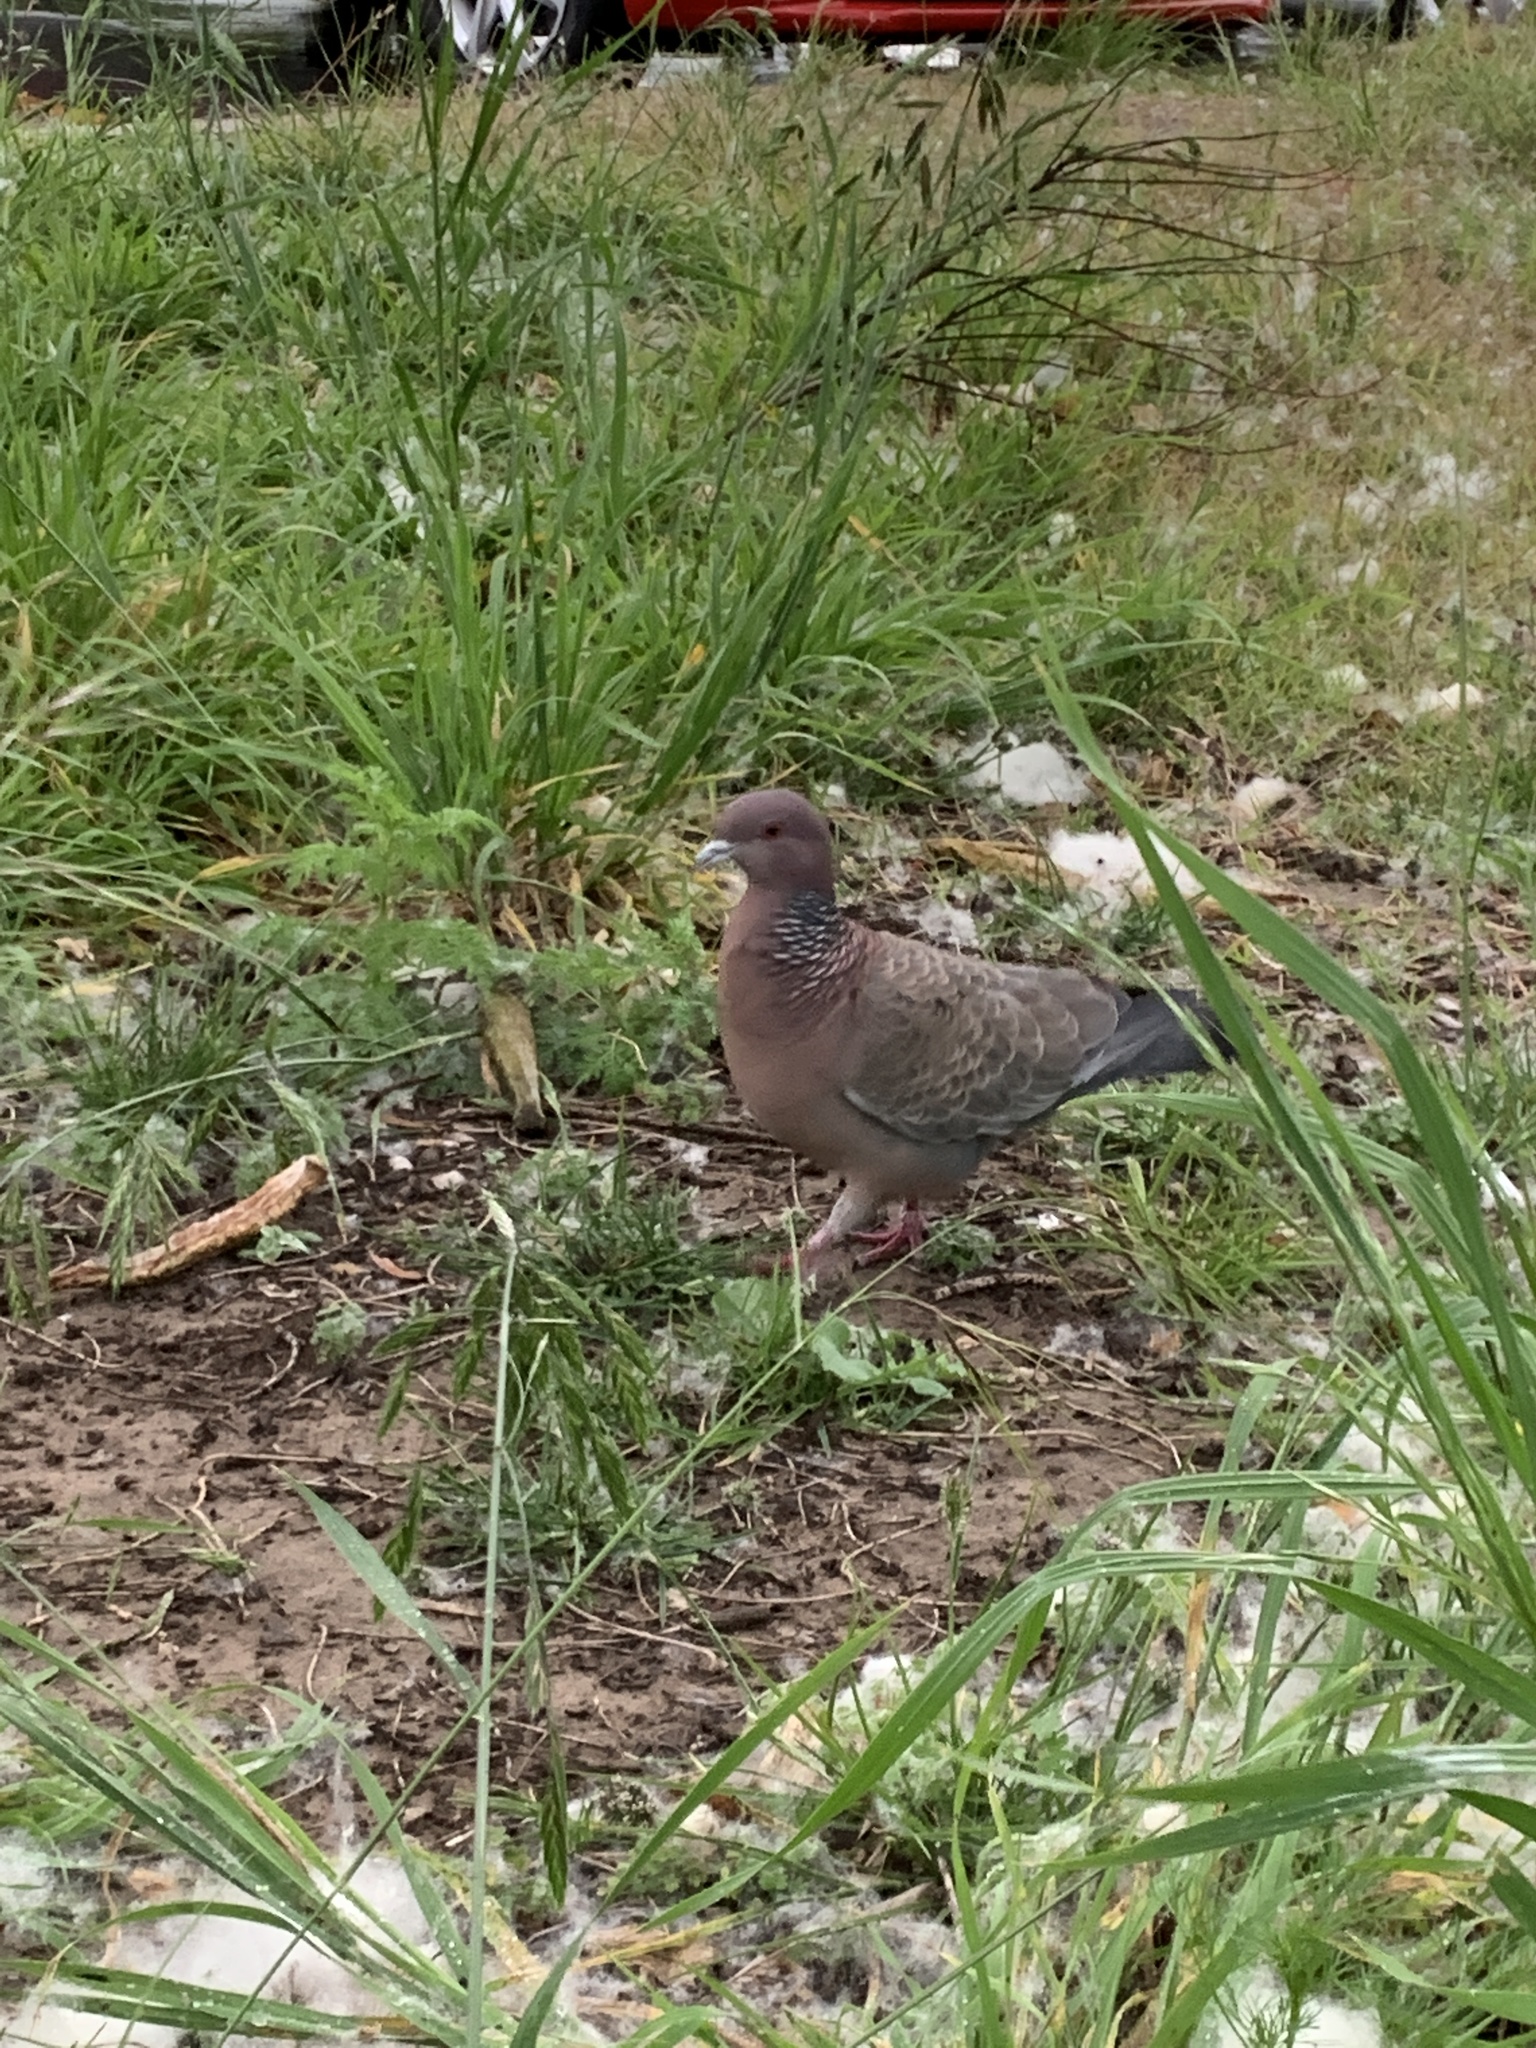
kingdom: Animalia
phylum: Chordata
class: Aves
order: Columbiformes
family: Columbidae
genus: Patagioenas
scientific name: Patagioenas picazuro
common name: Picazuro pigeon
